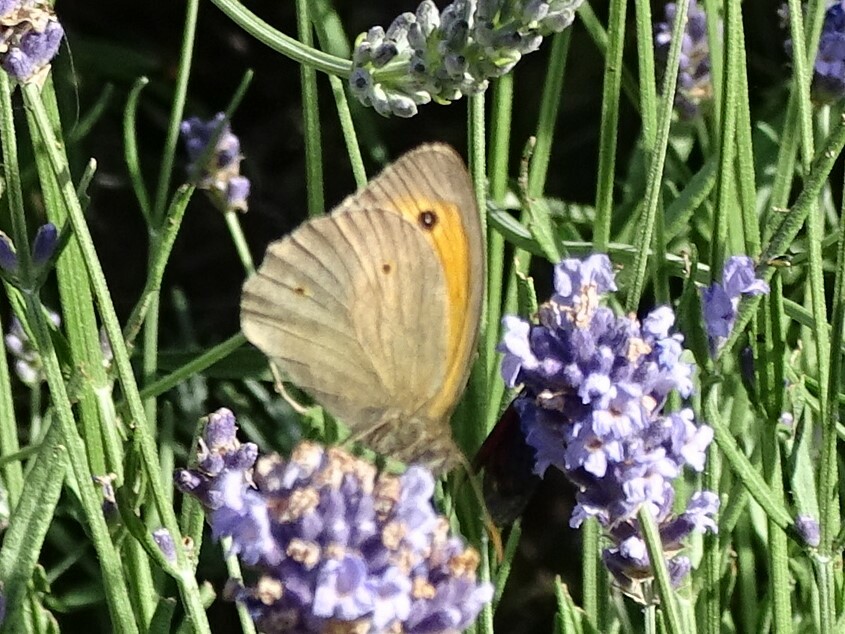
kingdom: Animalia
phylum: Arthropoda
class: Insecta
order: Lepidoptera
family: Nymphalidae
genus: Maniola
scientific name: Maniola jurtina
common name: Meadow brown
